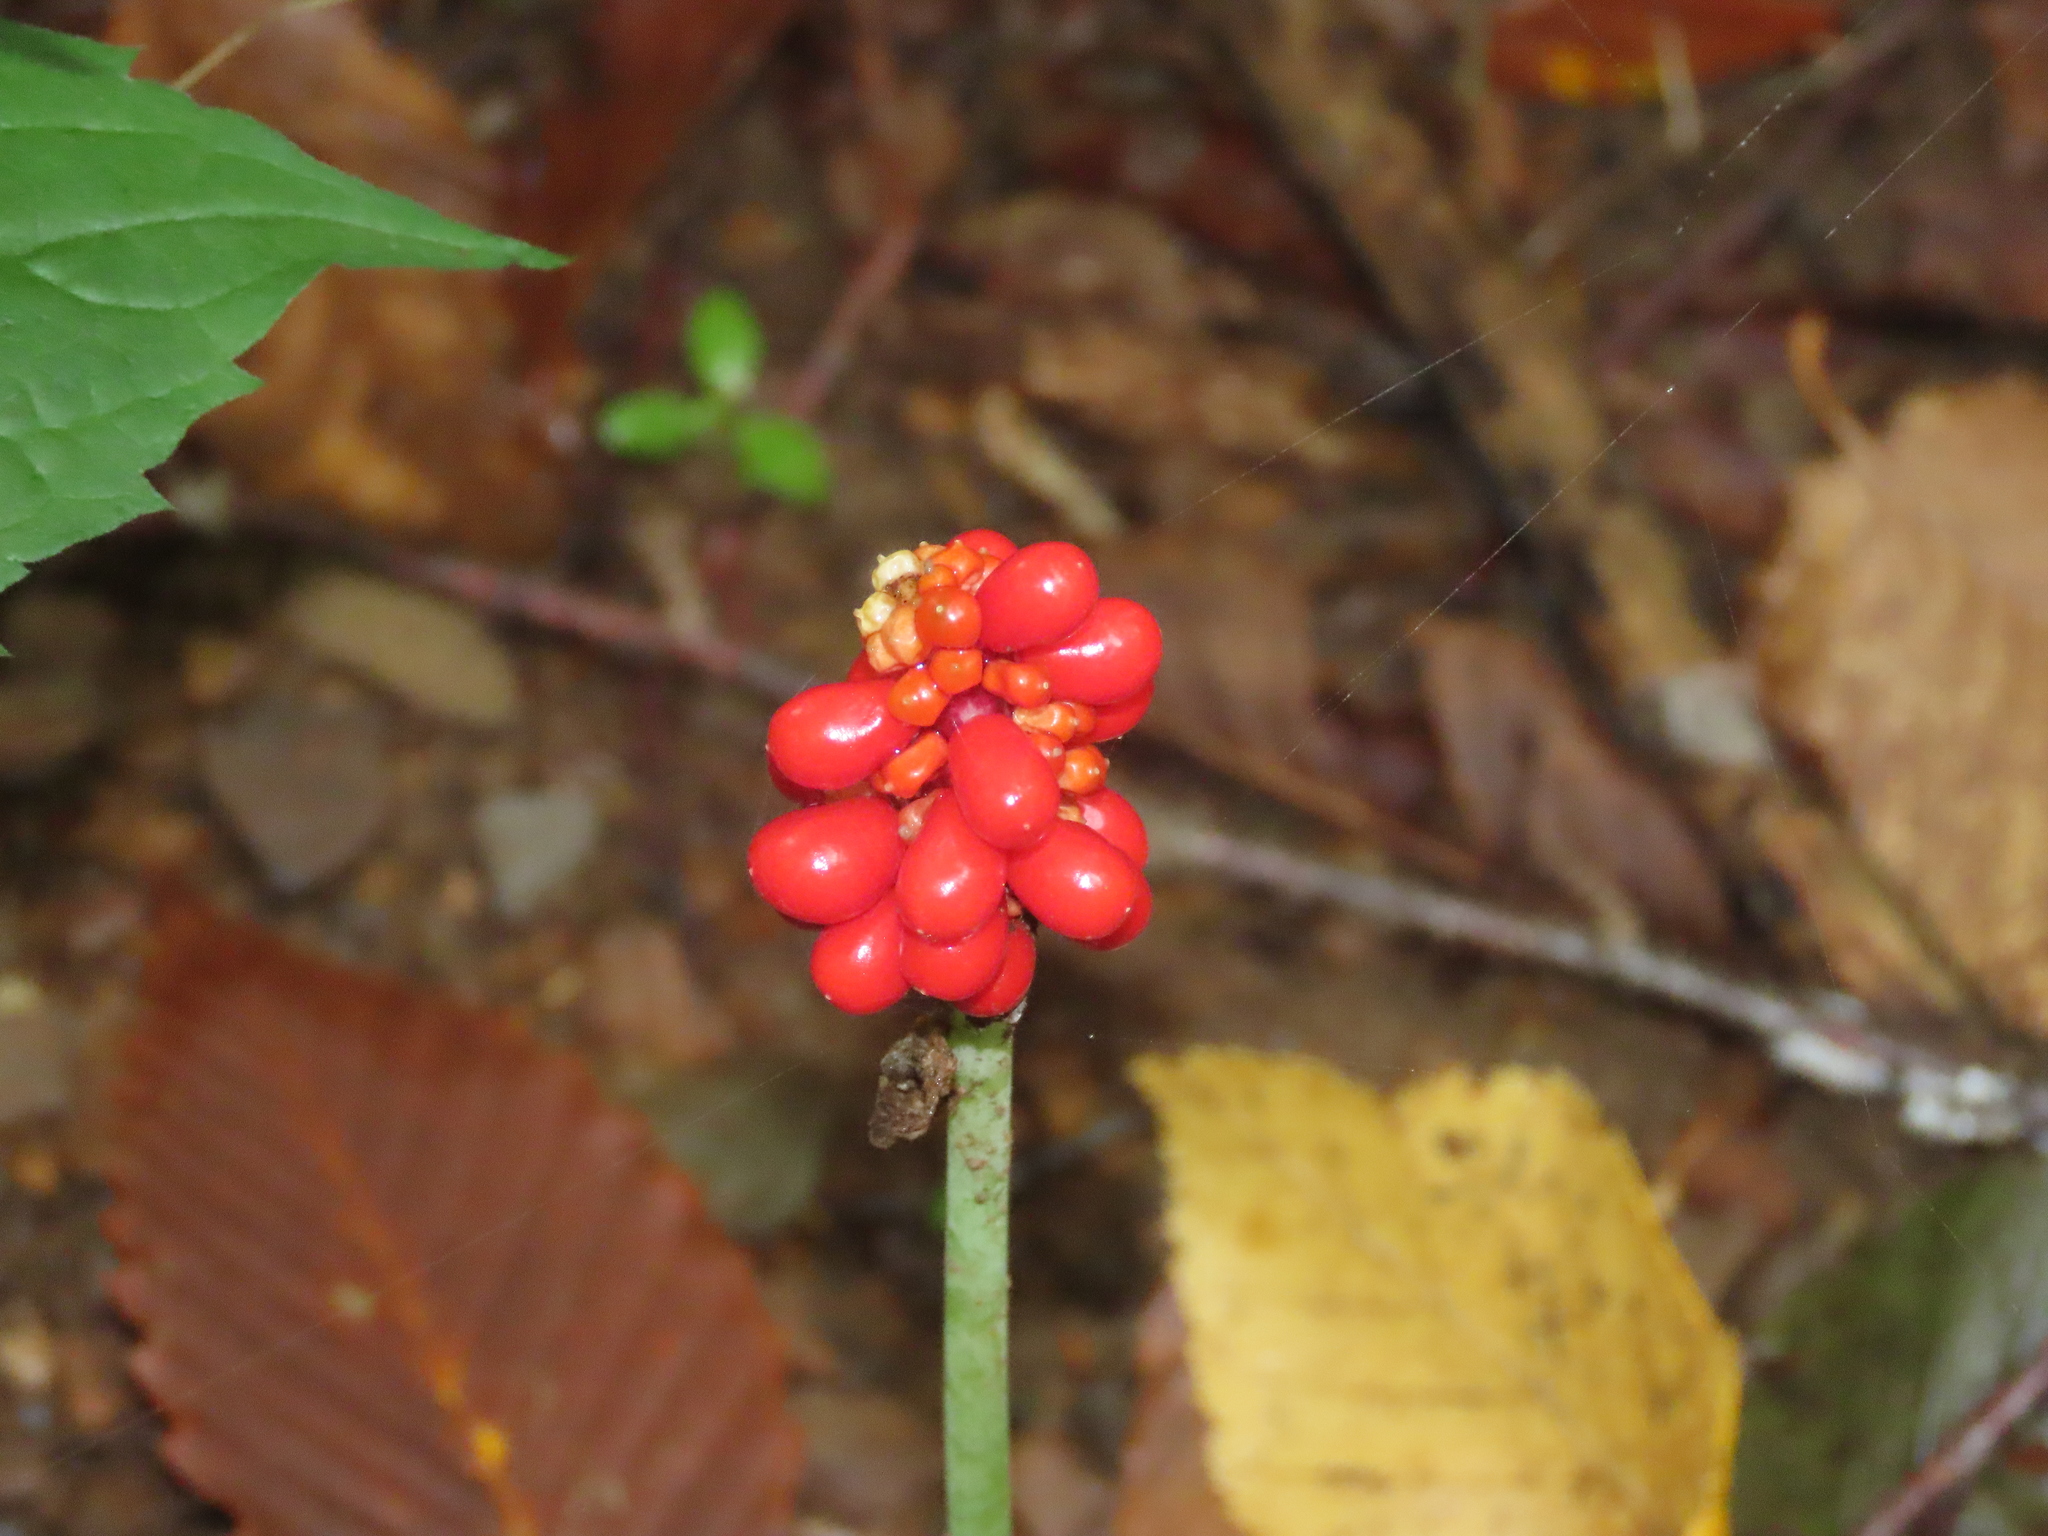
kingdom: Plantae
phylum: Tracheophyta
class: Liliopsida
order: Alismatales
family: Araceae
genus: Arisaema
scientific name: Arisaema triphyllum
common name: Jack-in-the-pulpit
